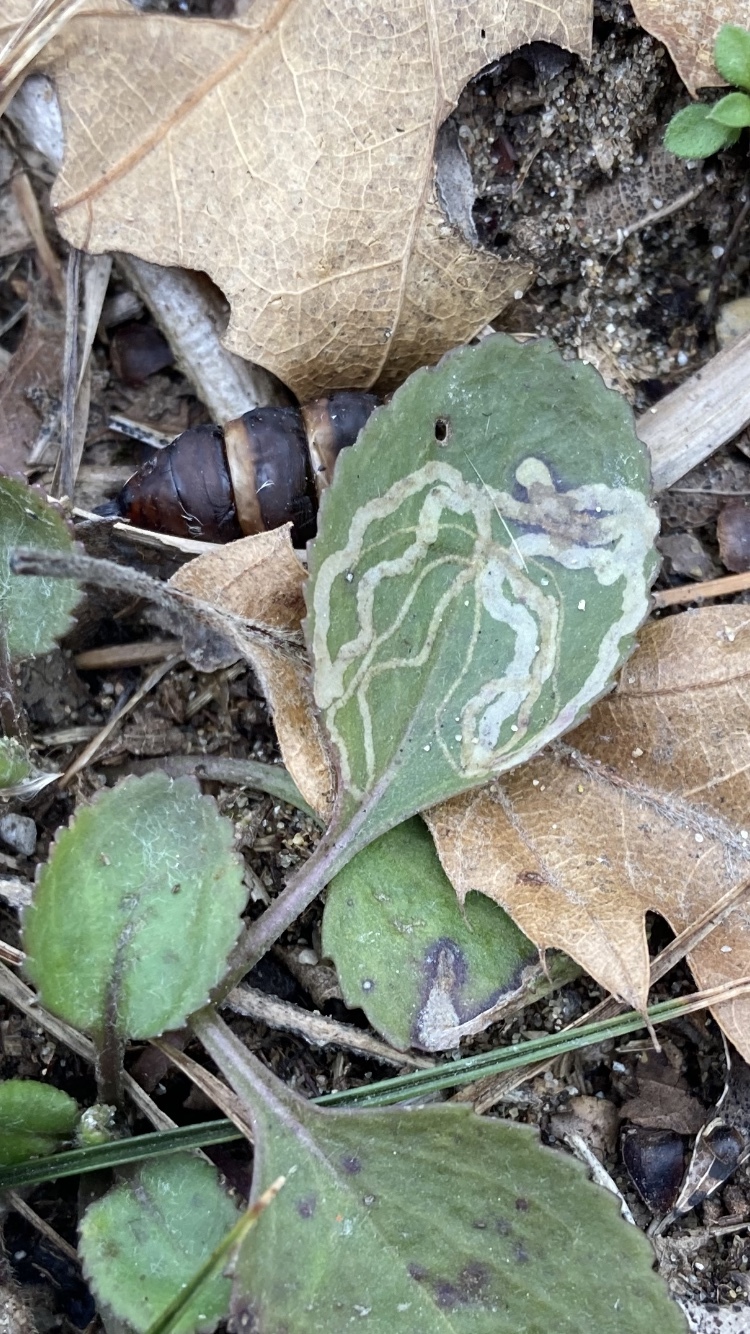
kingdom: Animalia
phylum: Arthropoda
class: Insecta
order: Lepidoptera
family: Gracillariidae
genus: Phyllocnistis
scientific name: Phyllocnistis insignis
